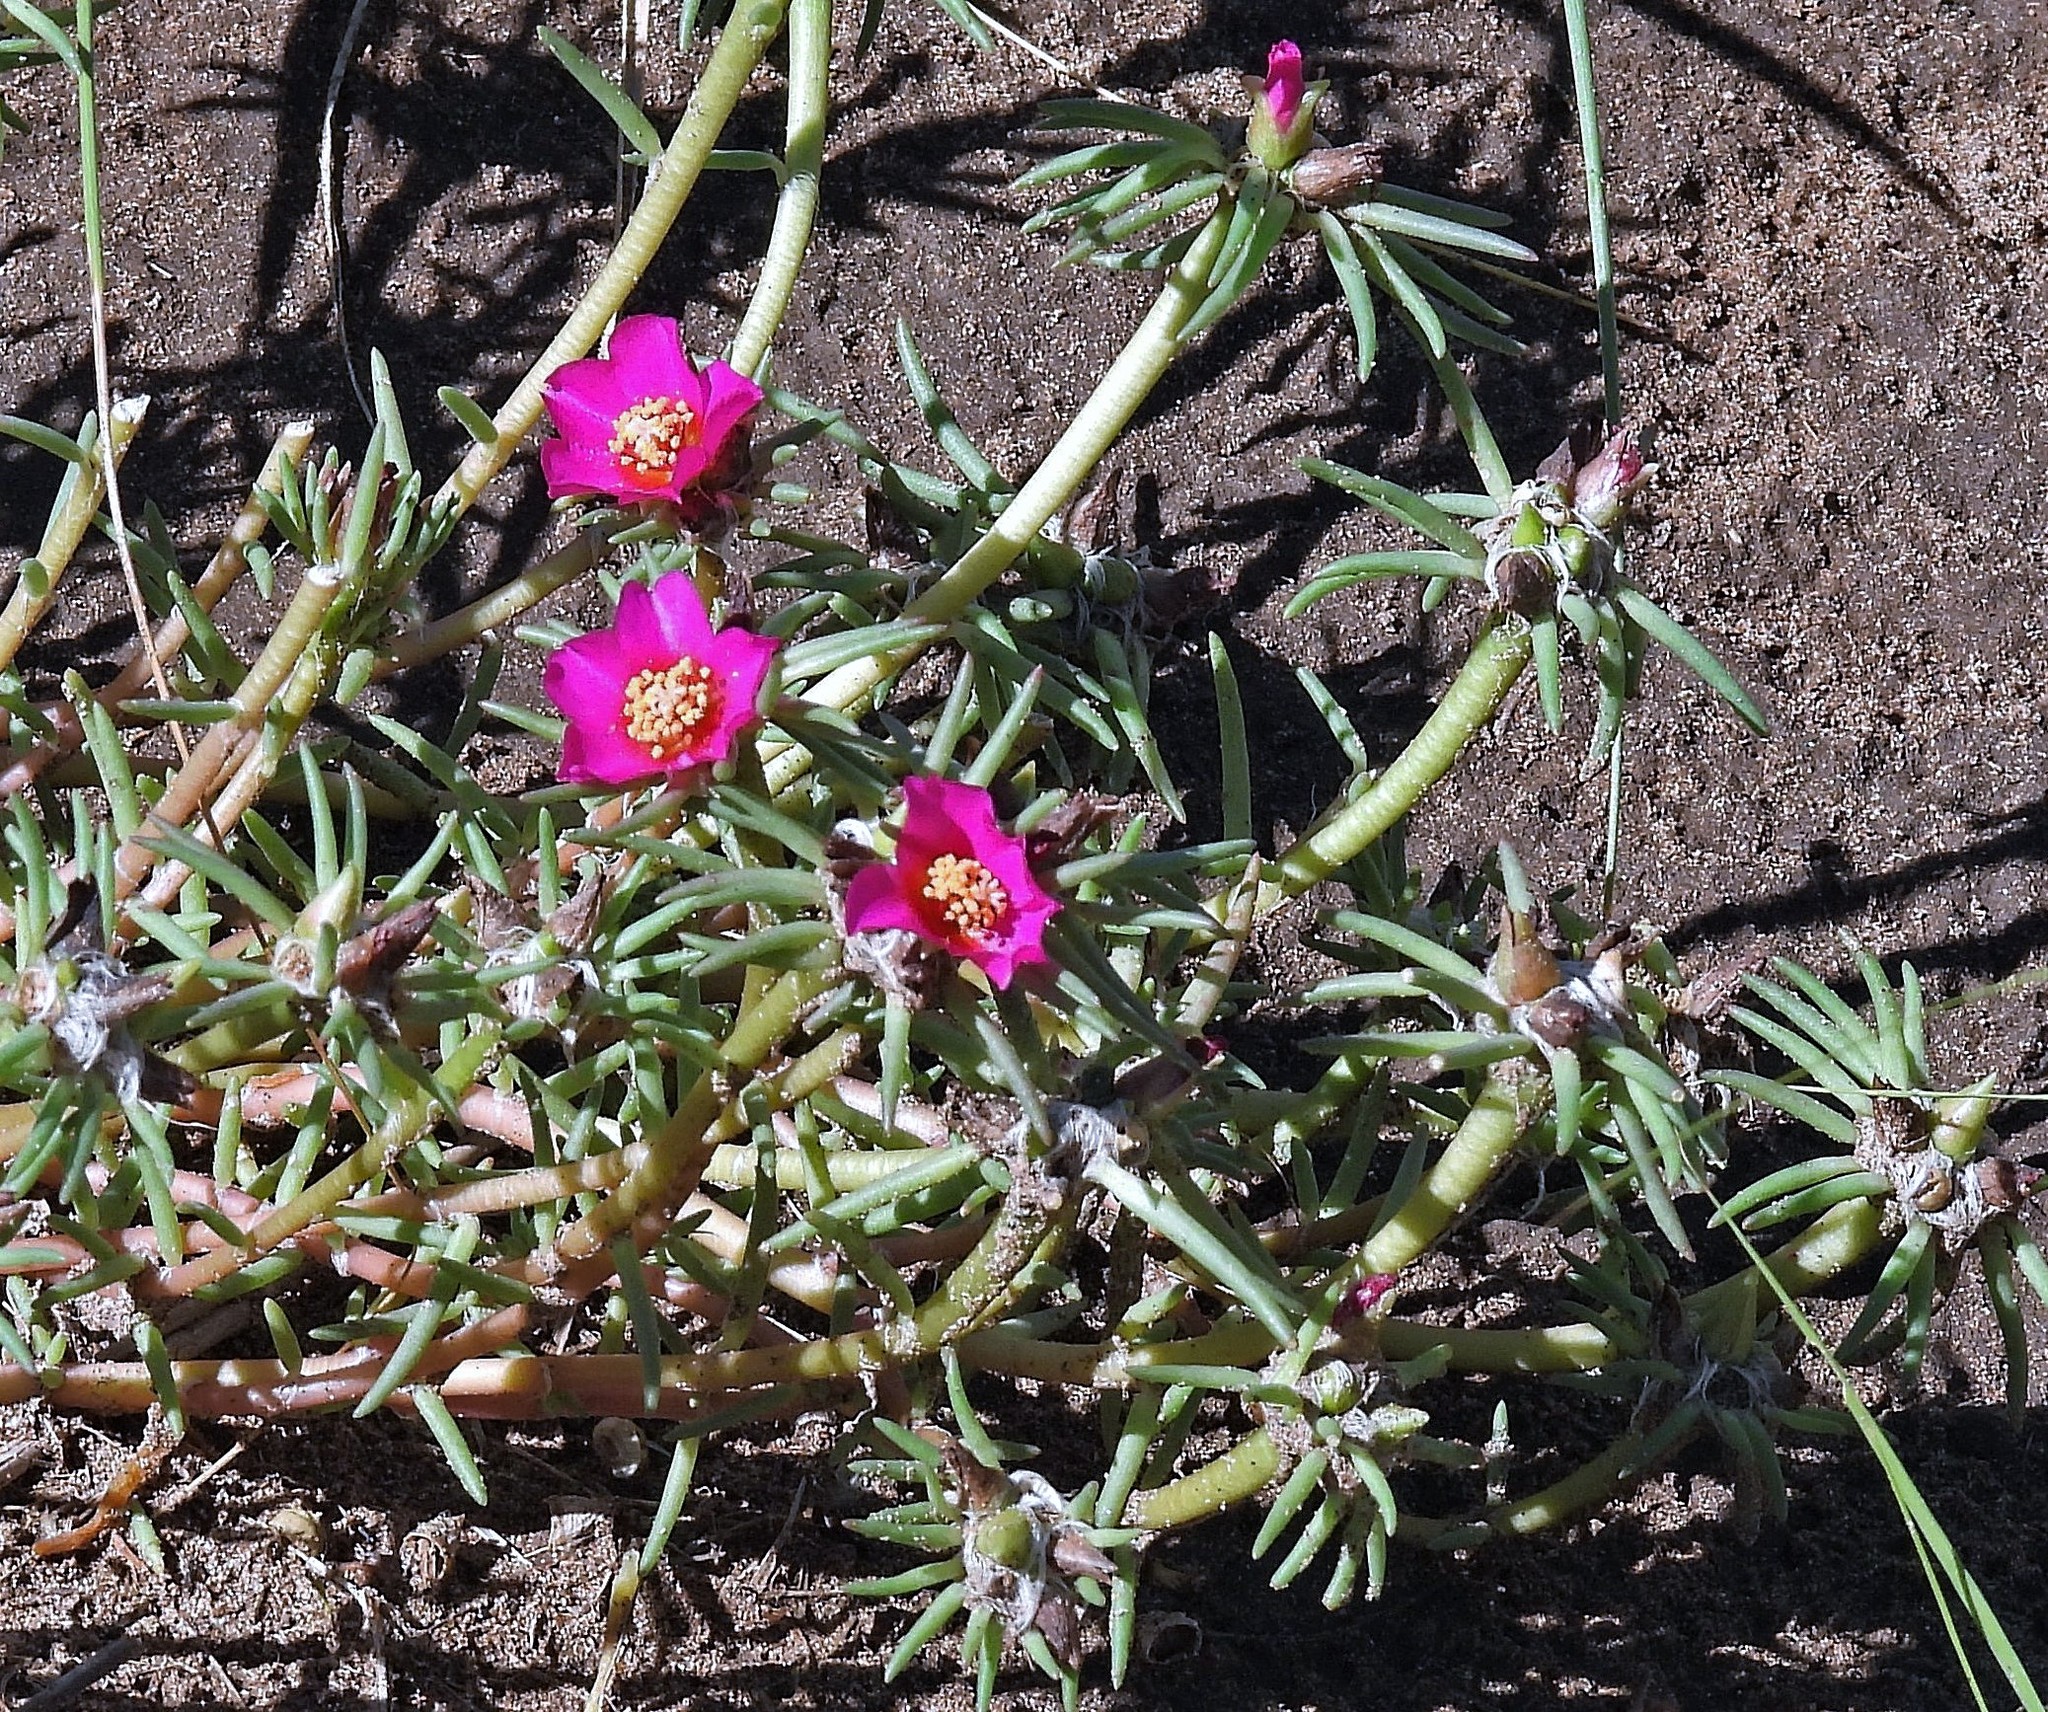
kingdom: Plantae
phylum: Tracheophyta
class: Magnoliopsida
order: Caryophyllales
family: Portulacaceae
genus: Portulaca
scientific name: Portulaca pilosa
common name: Kiss me quick
